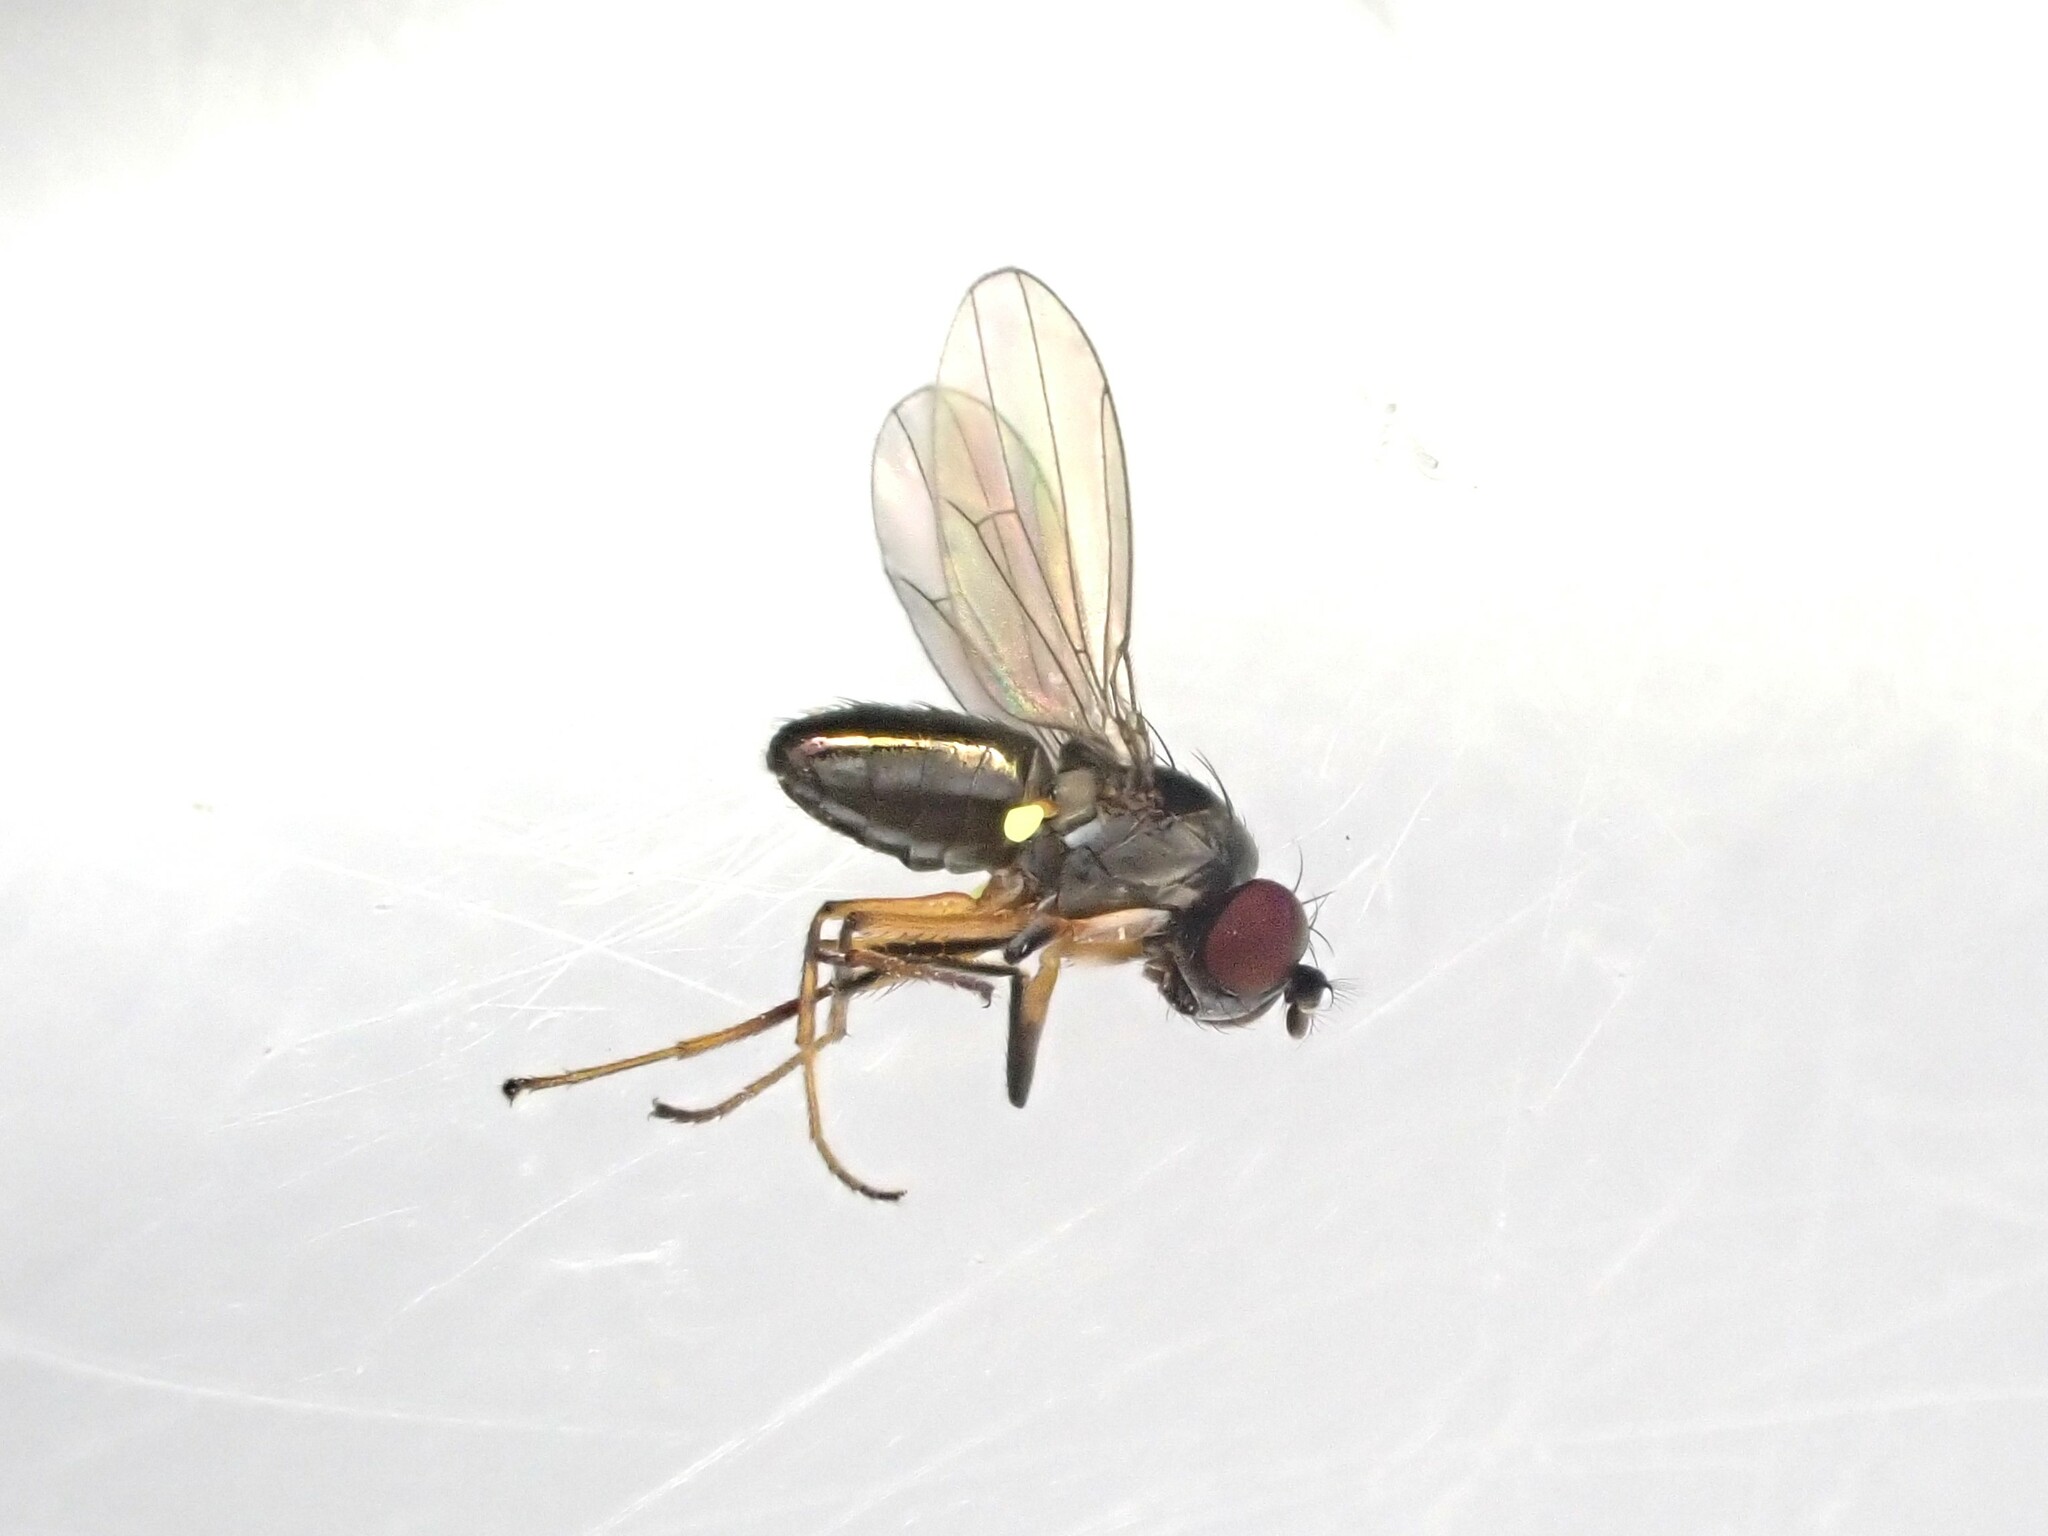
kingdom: Animalia
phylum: Arthropoda
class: Insecta
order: Diptera
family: Ephydridae
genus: Hydrellia
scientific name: Hydrellia tritici
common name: Shore fly
